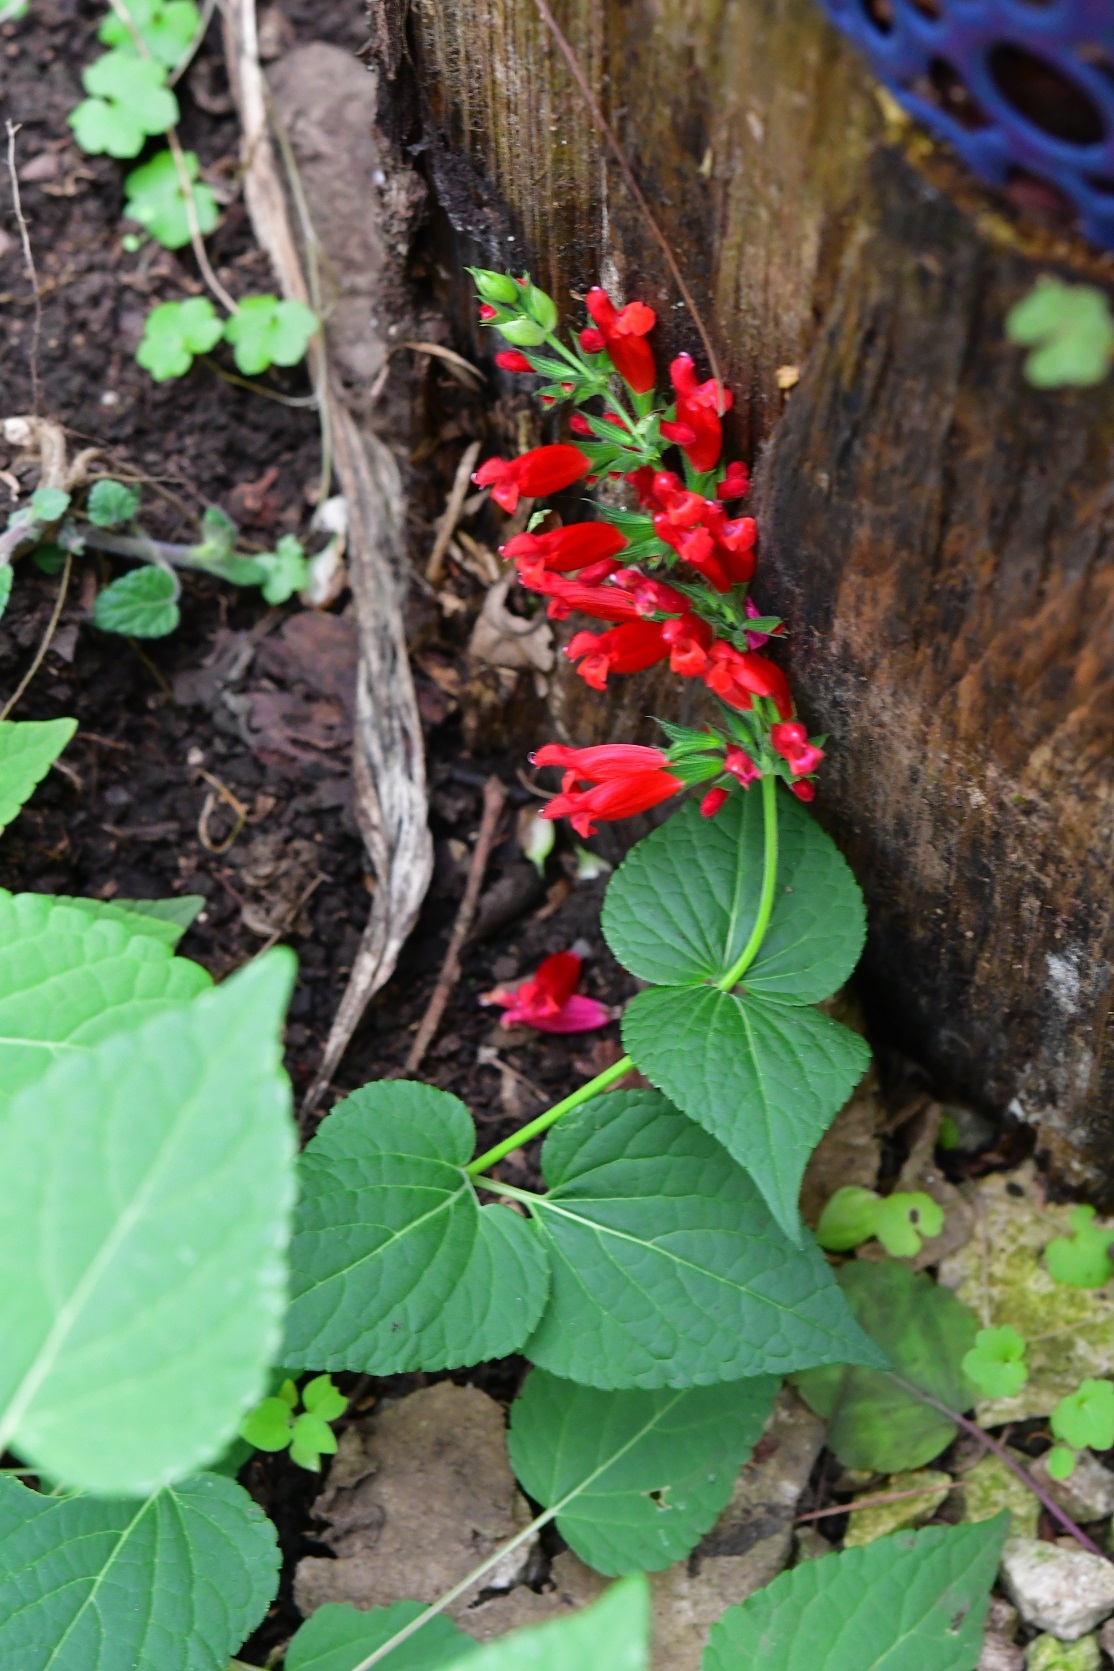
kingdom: Plantae
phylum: Tracheophyta
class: Magnoliopsida
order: Lamiales
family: Lamiaceae
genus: Salvia
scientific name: Salvia holwayi
